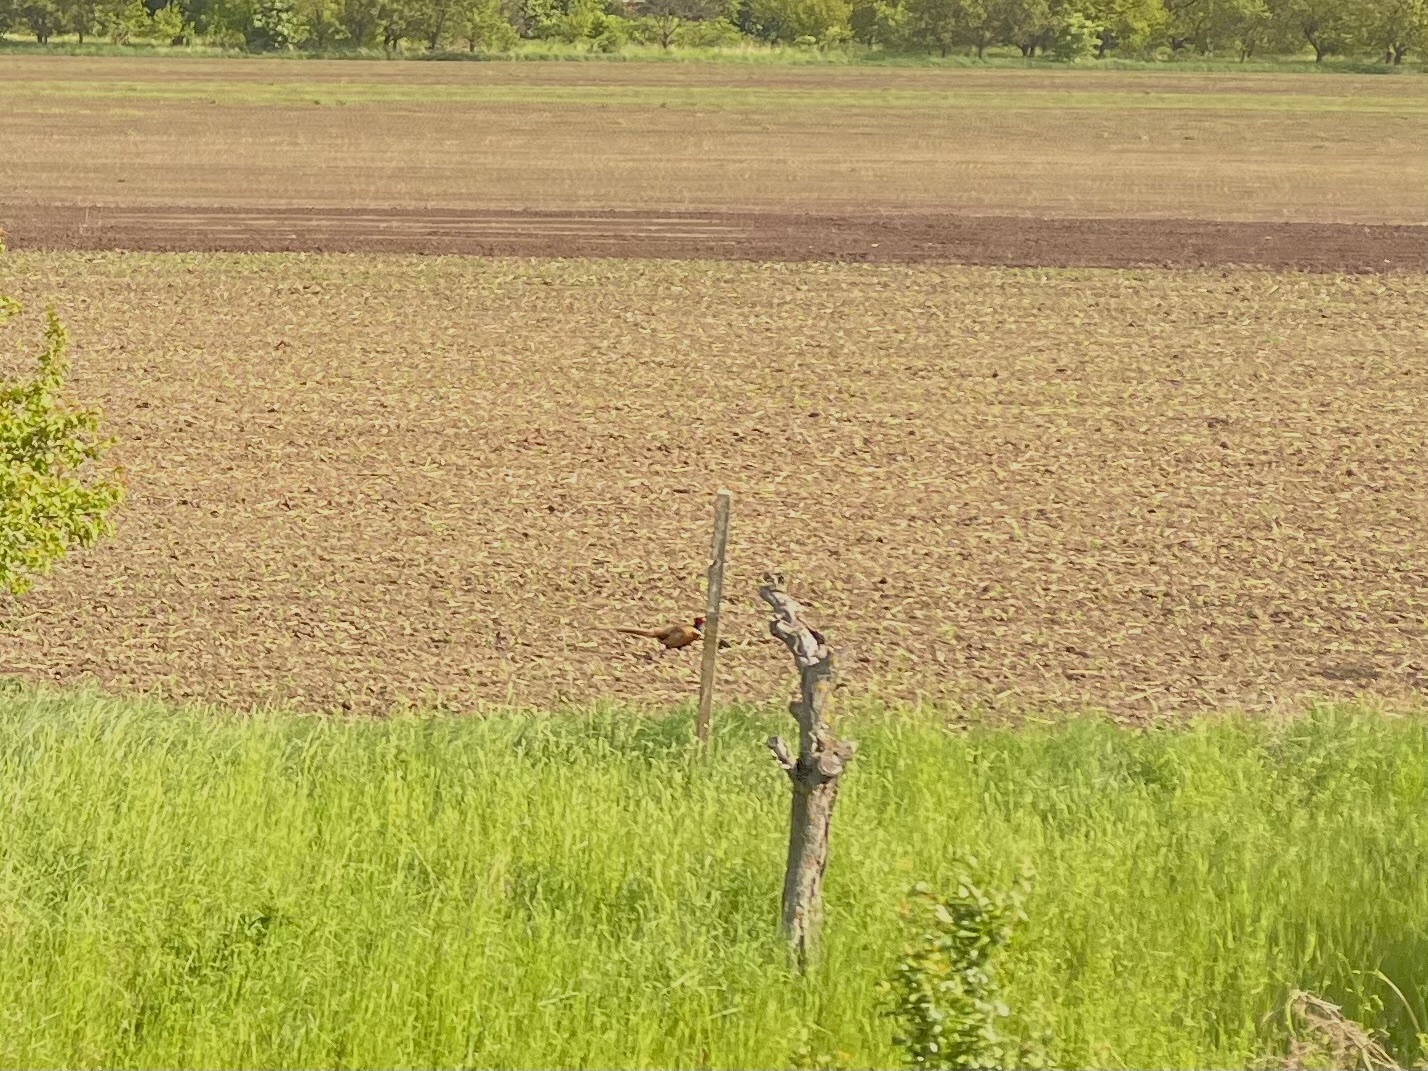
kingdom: Animalia
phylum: Chordata
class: Aves
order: Galliformes
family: Phasianidae
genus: Phasianus
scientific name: Phasianus colchicus
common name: Common pheasant
